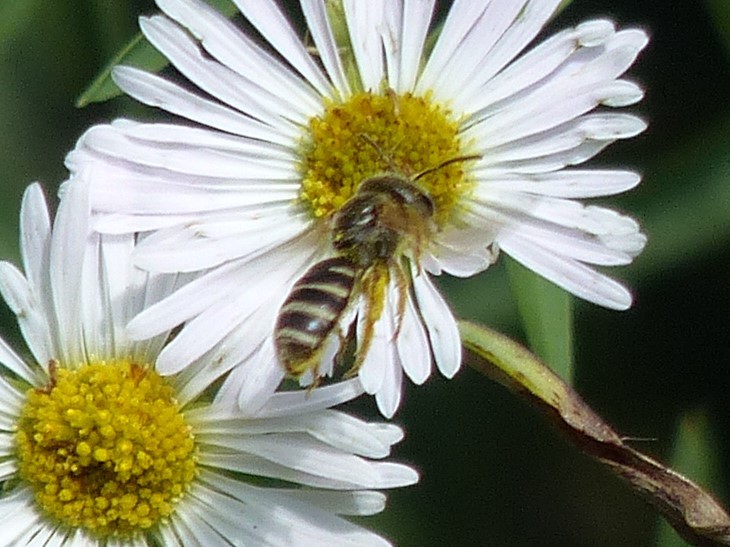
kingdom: Animalia
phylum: Arthropoda
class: Insecta
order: Hymenoptera
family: Halictidae
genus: Halictus
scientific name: Halictus ligatus
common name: Ligated furrow bee
